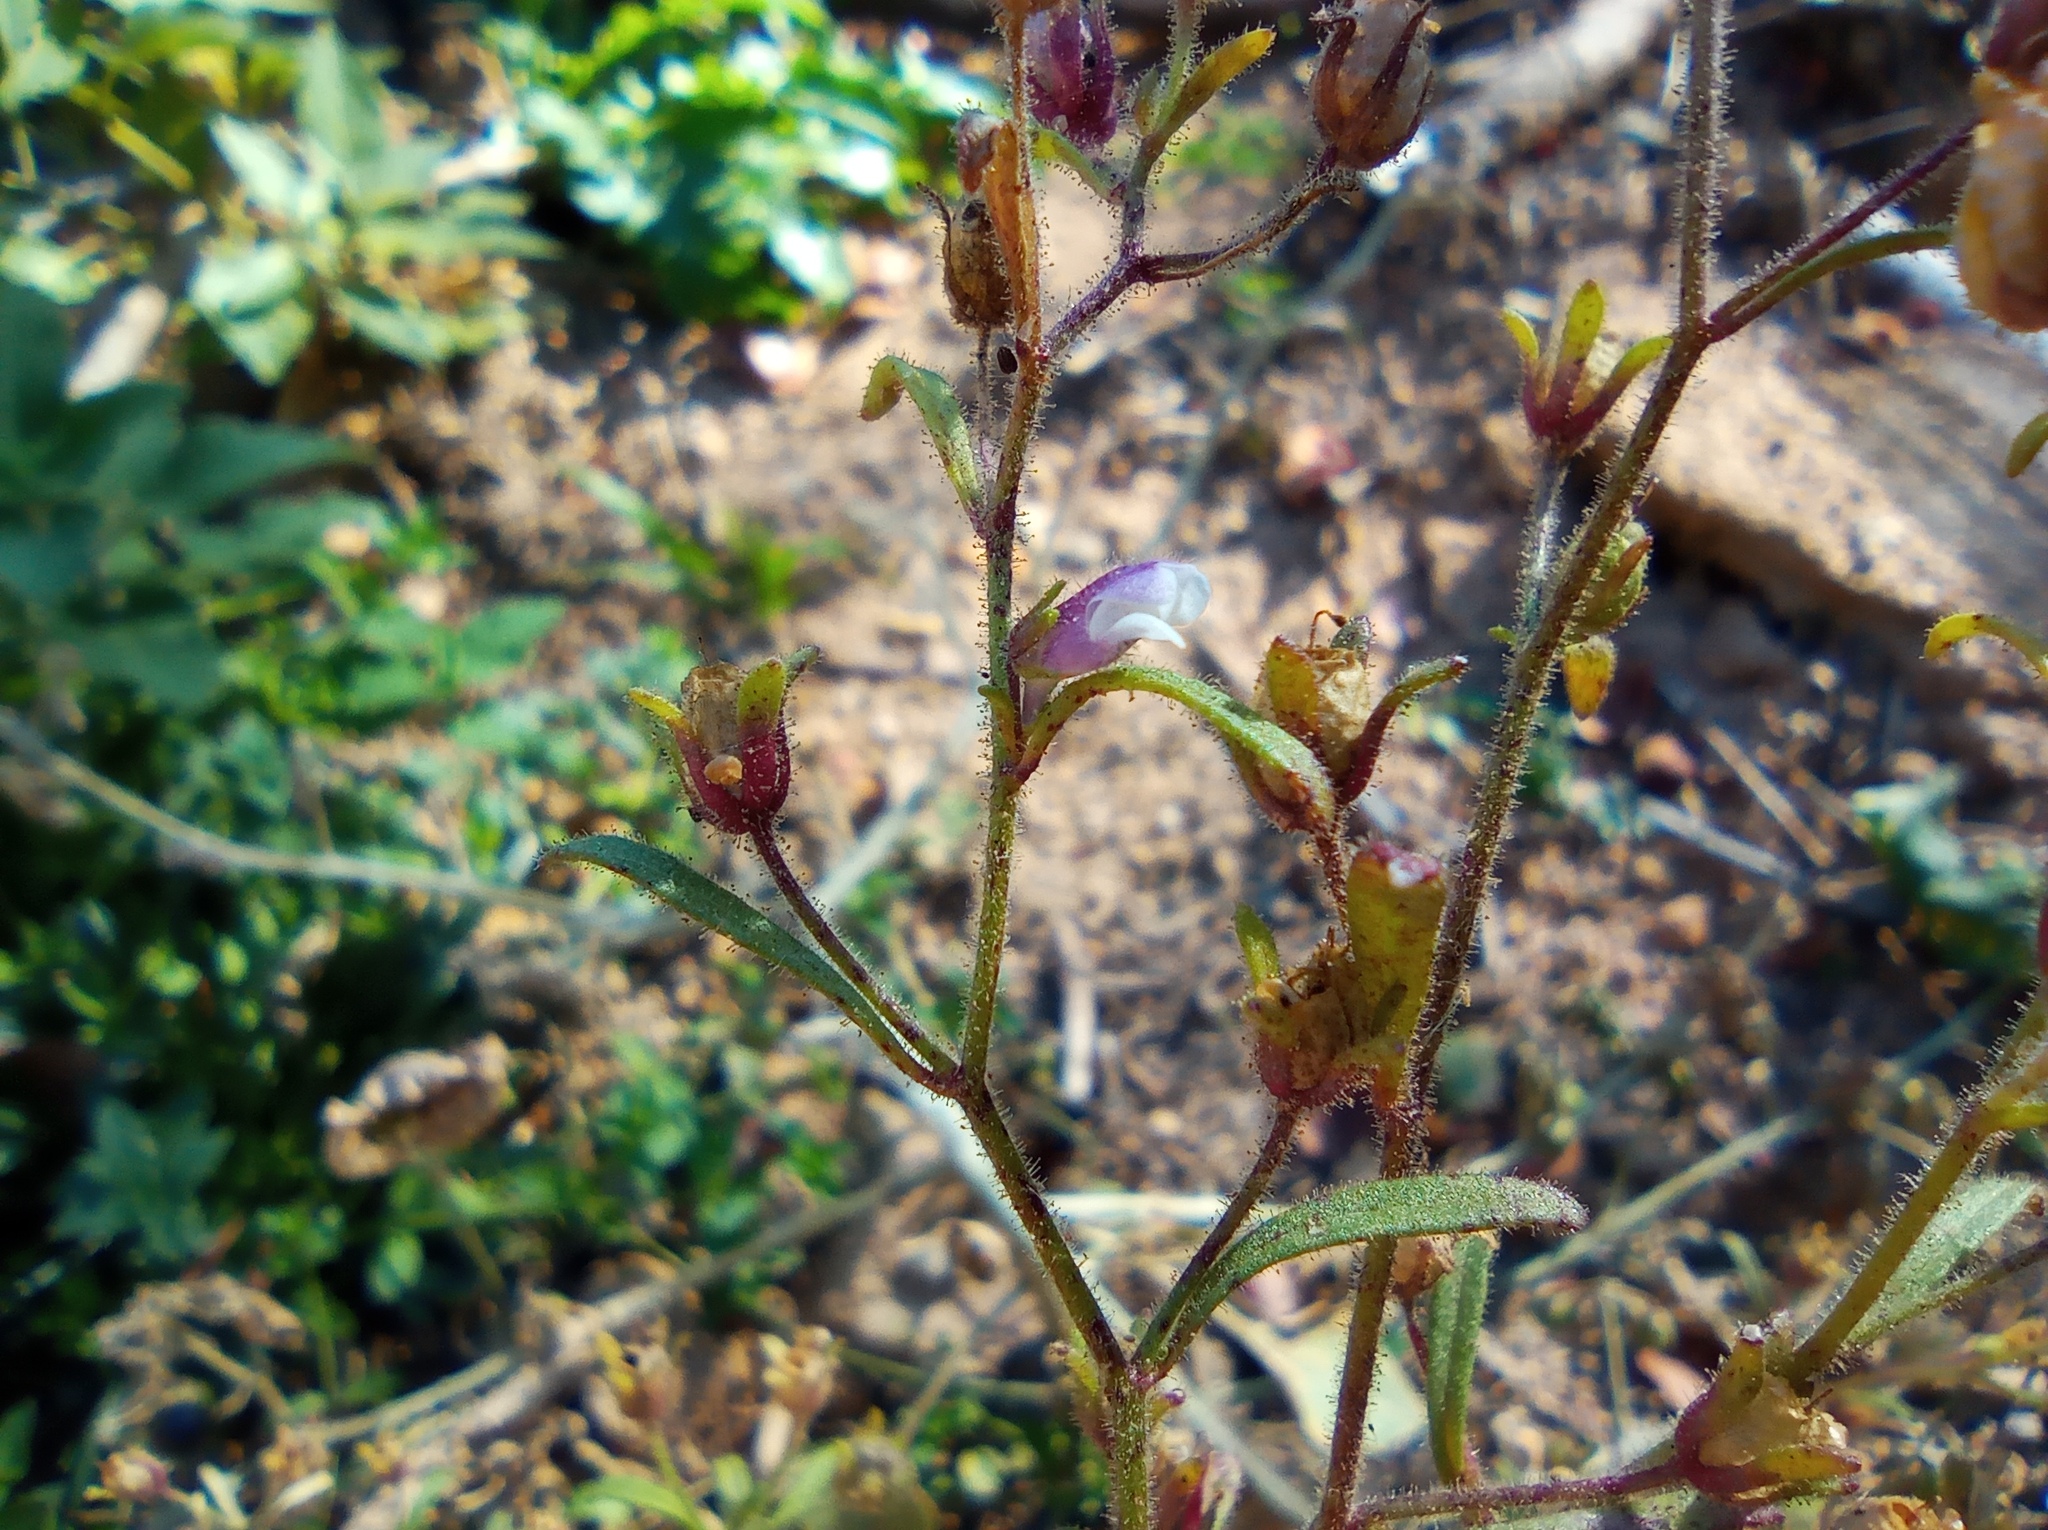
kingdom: Plantae
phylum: Tracheophyta
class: Magnoliopsida
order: Lamiales
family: Plantaginaceae
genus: Chaenorhinum
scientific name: Chaenorhinum minus
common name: Dwarf snapdragon
